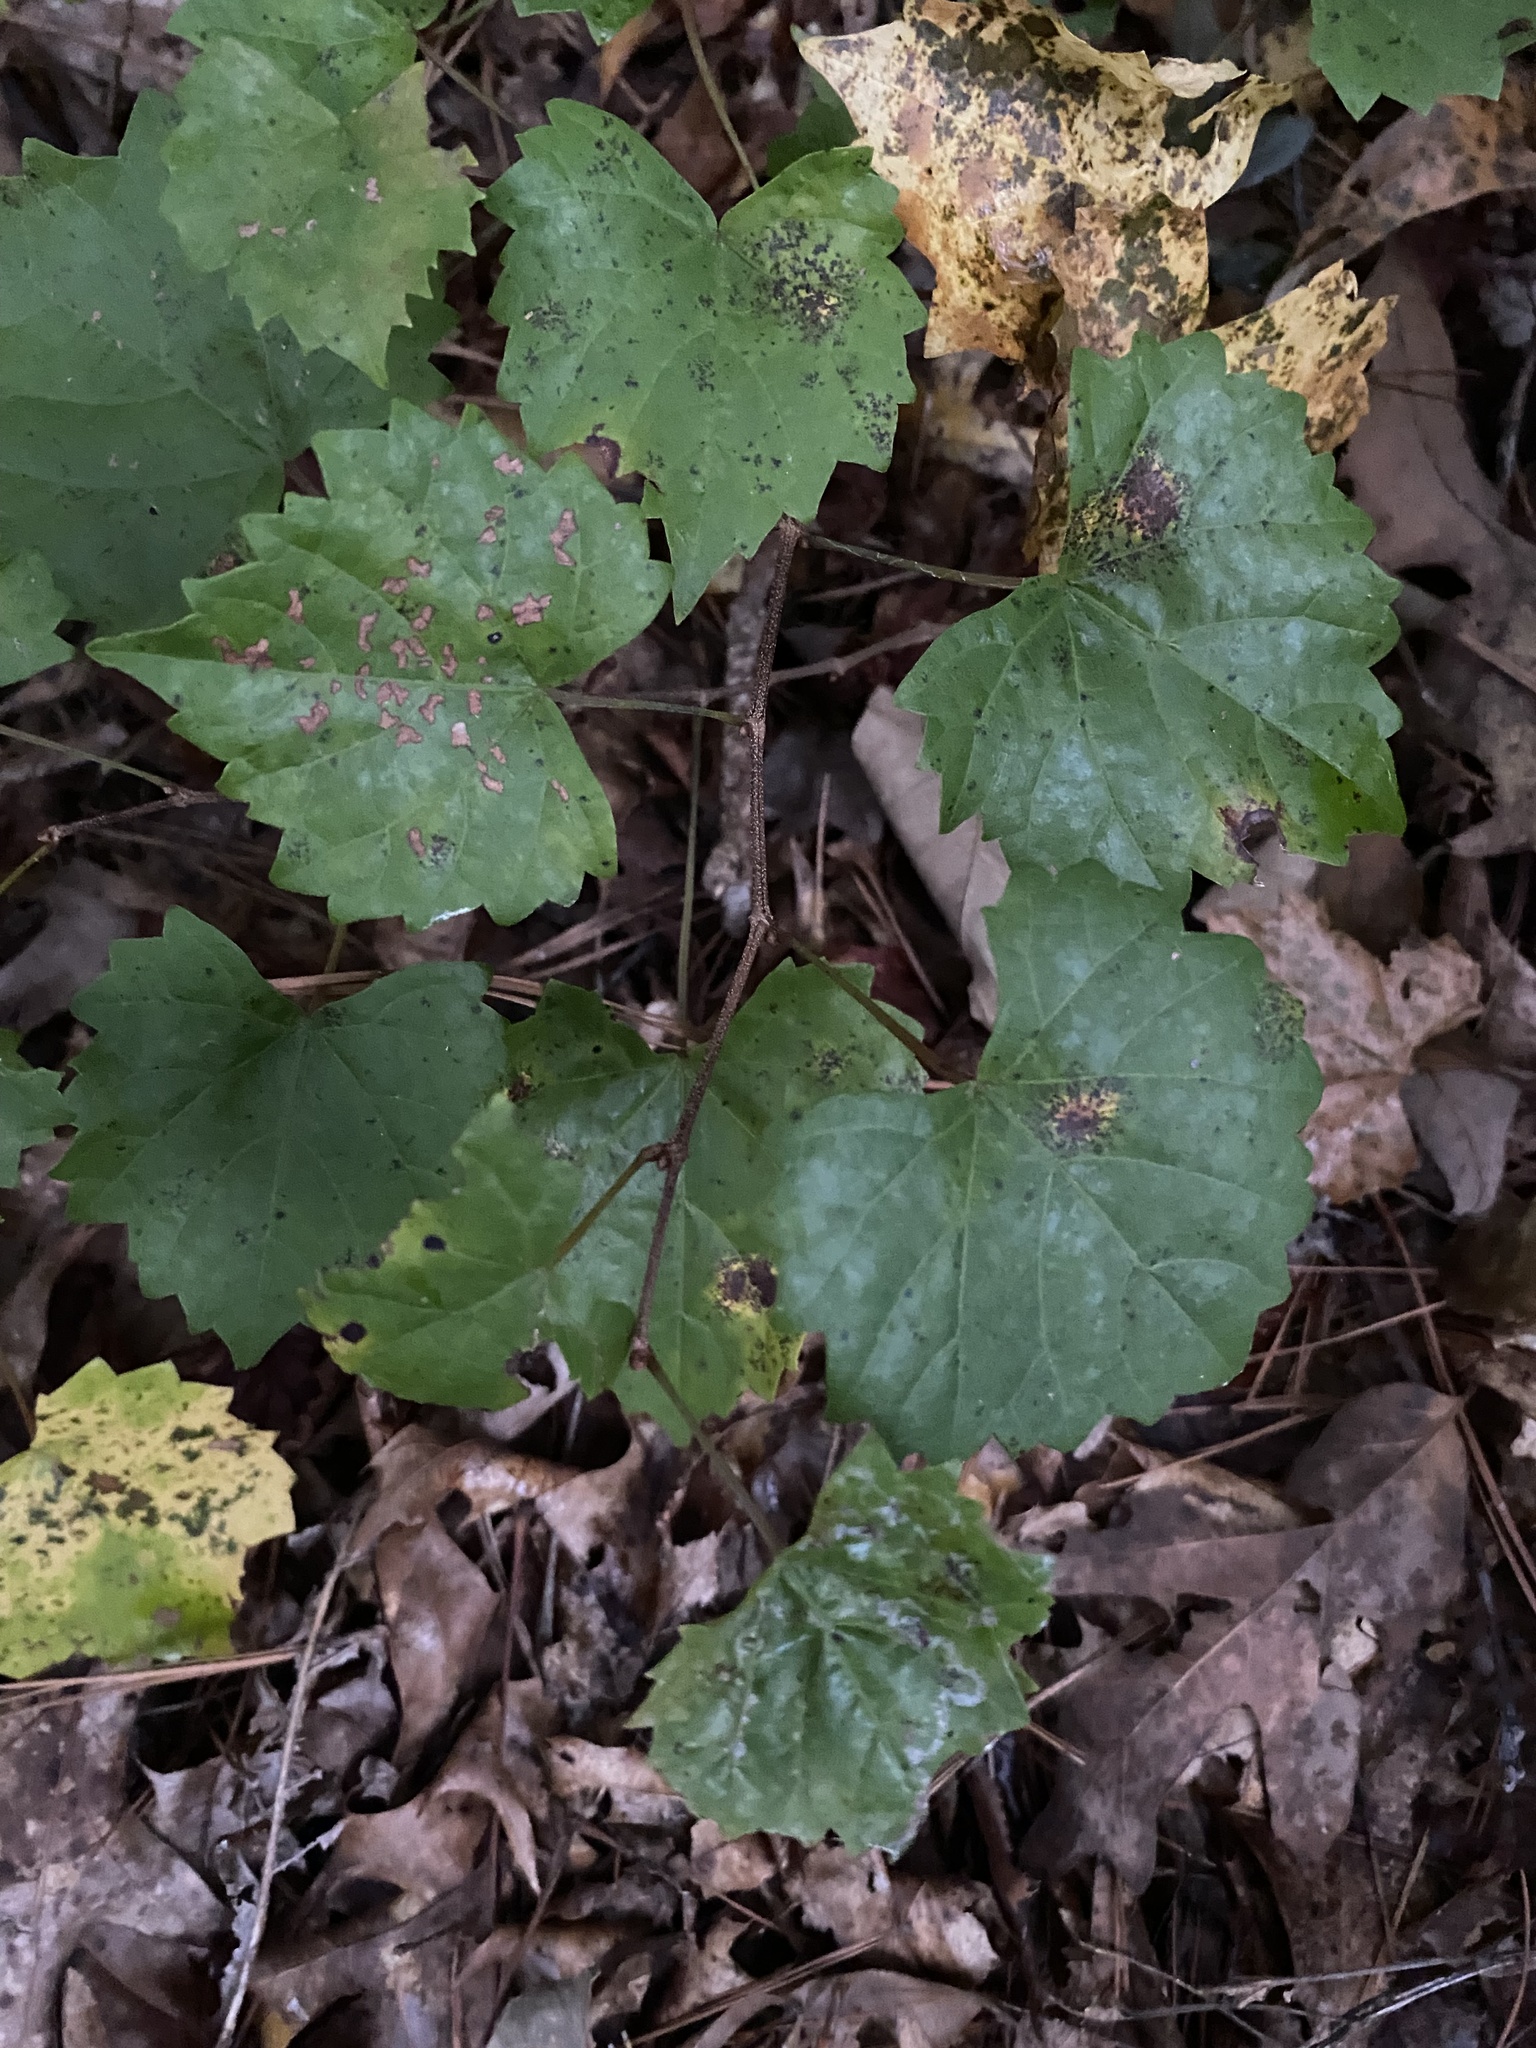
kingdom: Plantae
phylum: Tracheophyta
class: Magnoliopsida
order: Vitales
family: Vitaceae
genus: Vitis
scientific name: Vitis rotundifolia
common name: Muscadine grape
